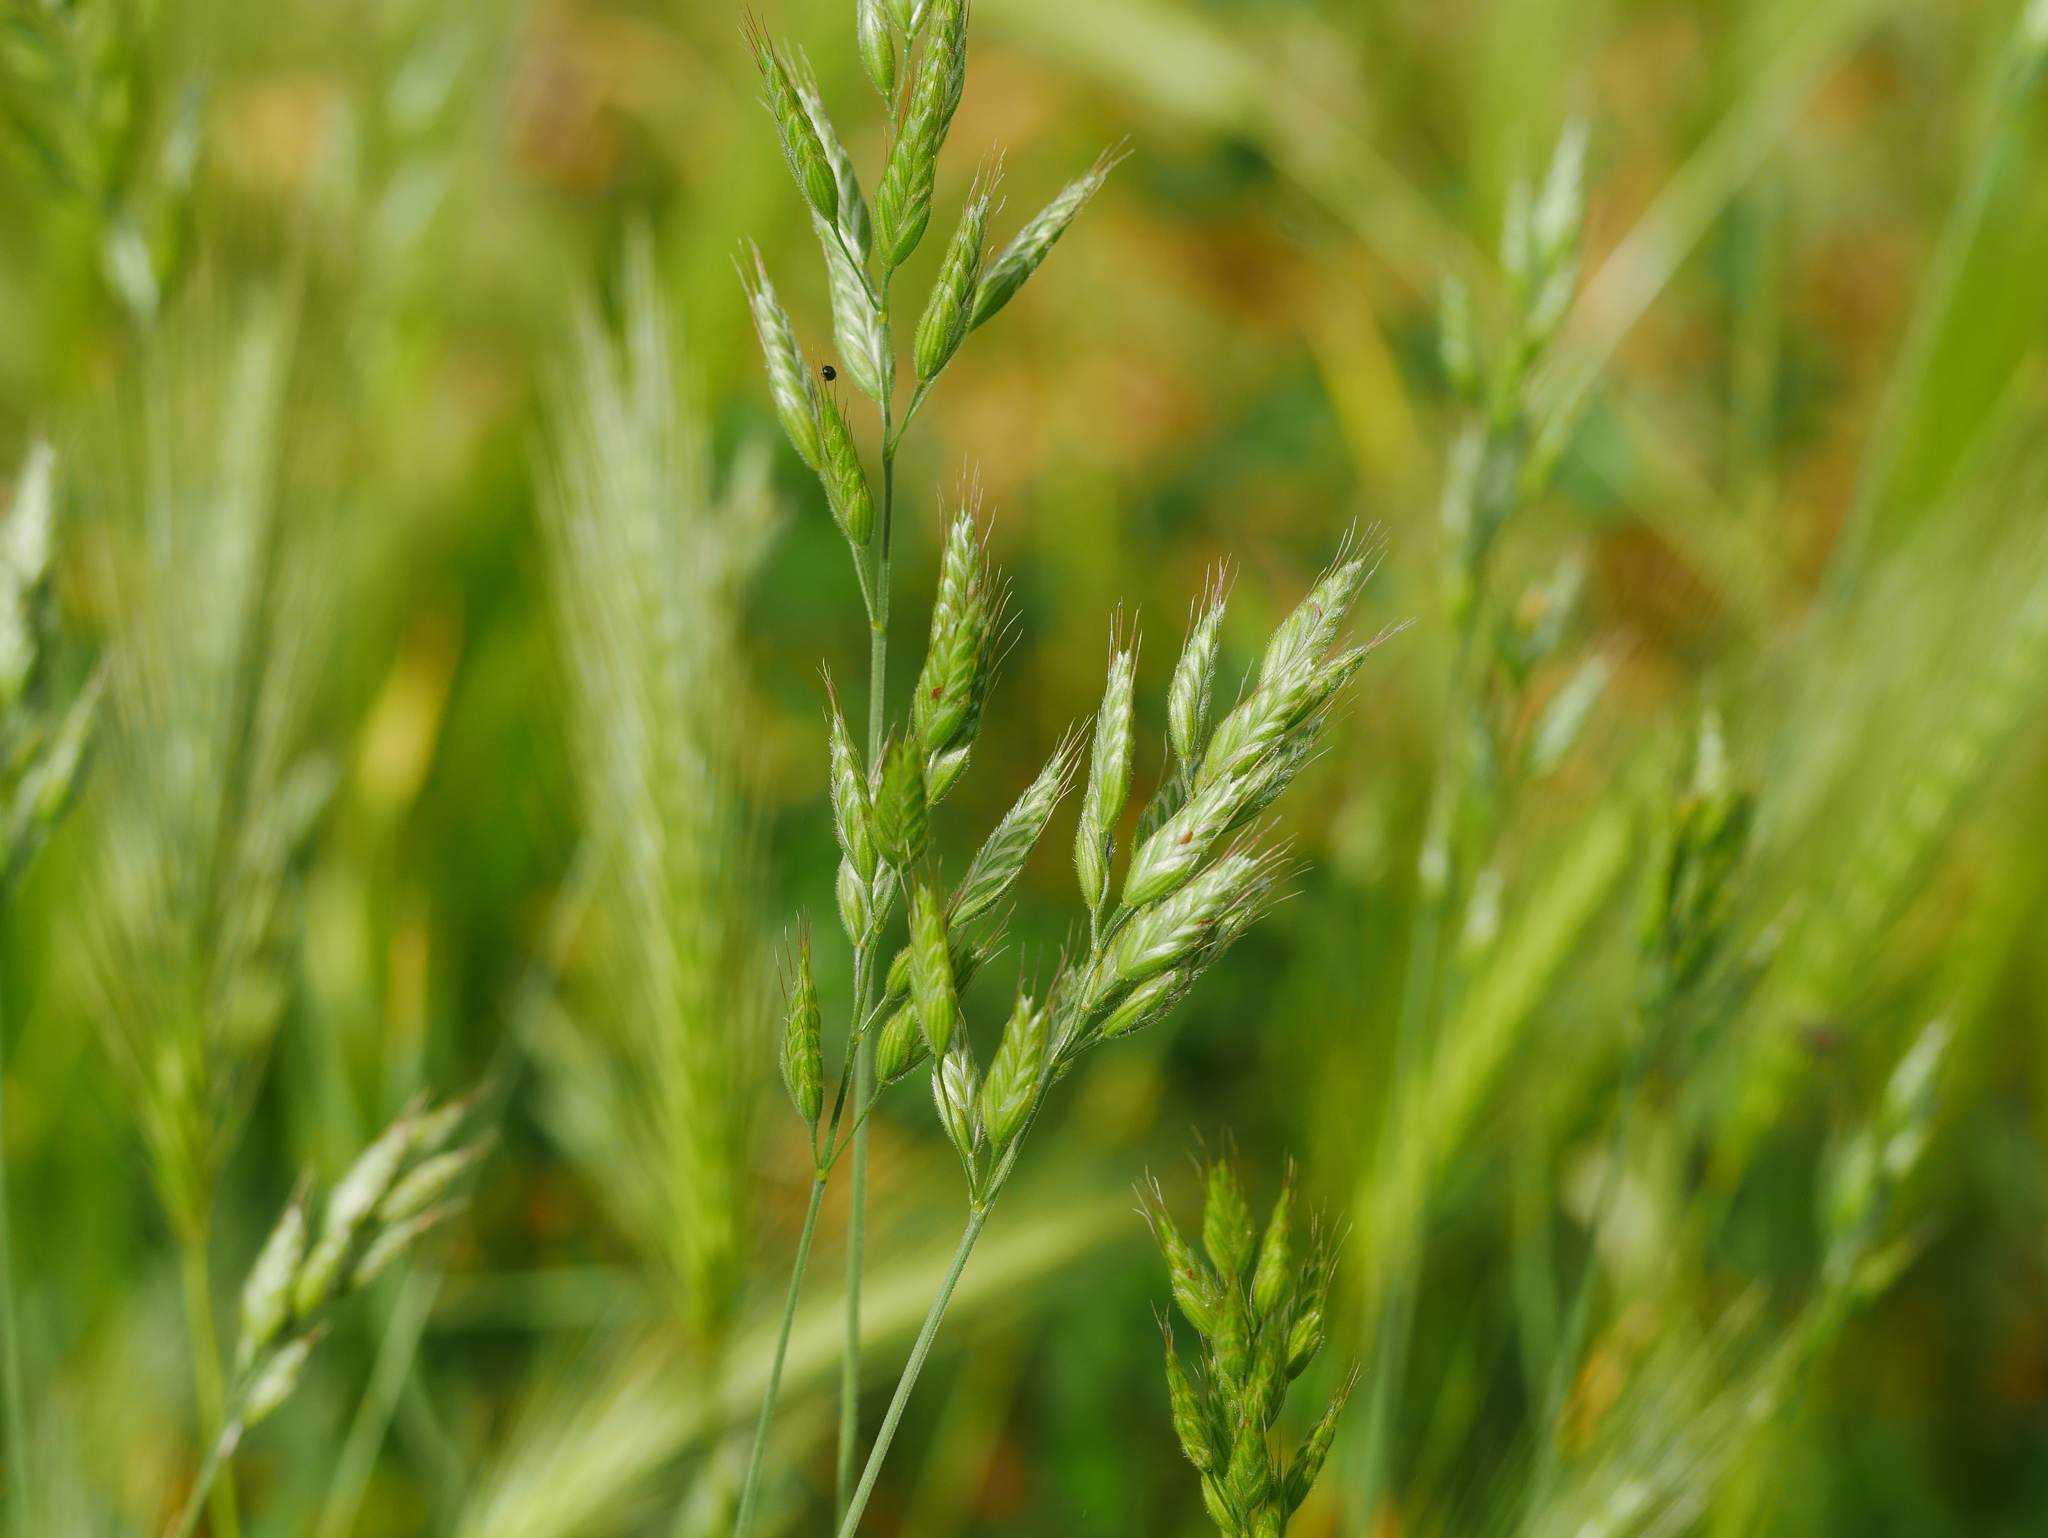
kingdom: Plantae
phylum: Tracheophyta
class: Liliopsida
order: Poales
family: Poaceae
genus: Bromus
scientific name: Bromus hordeaceus
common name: Soft brome
